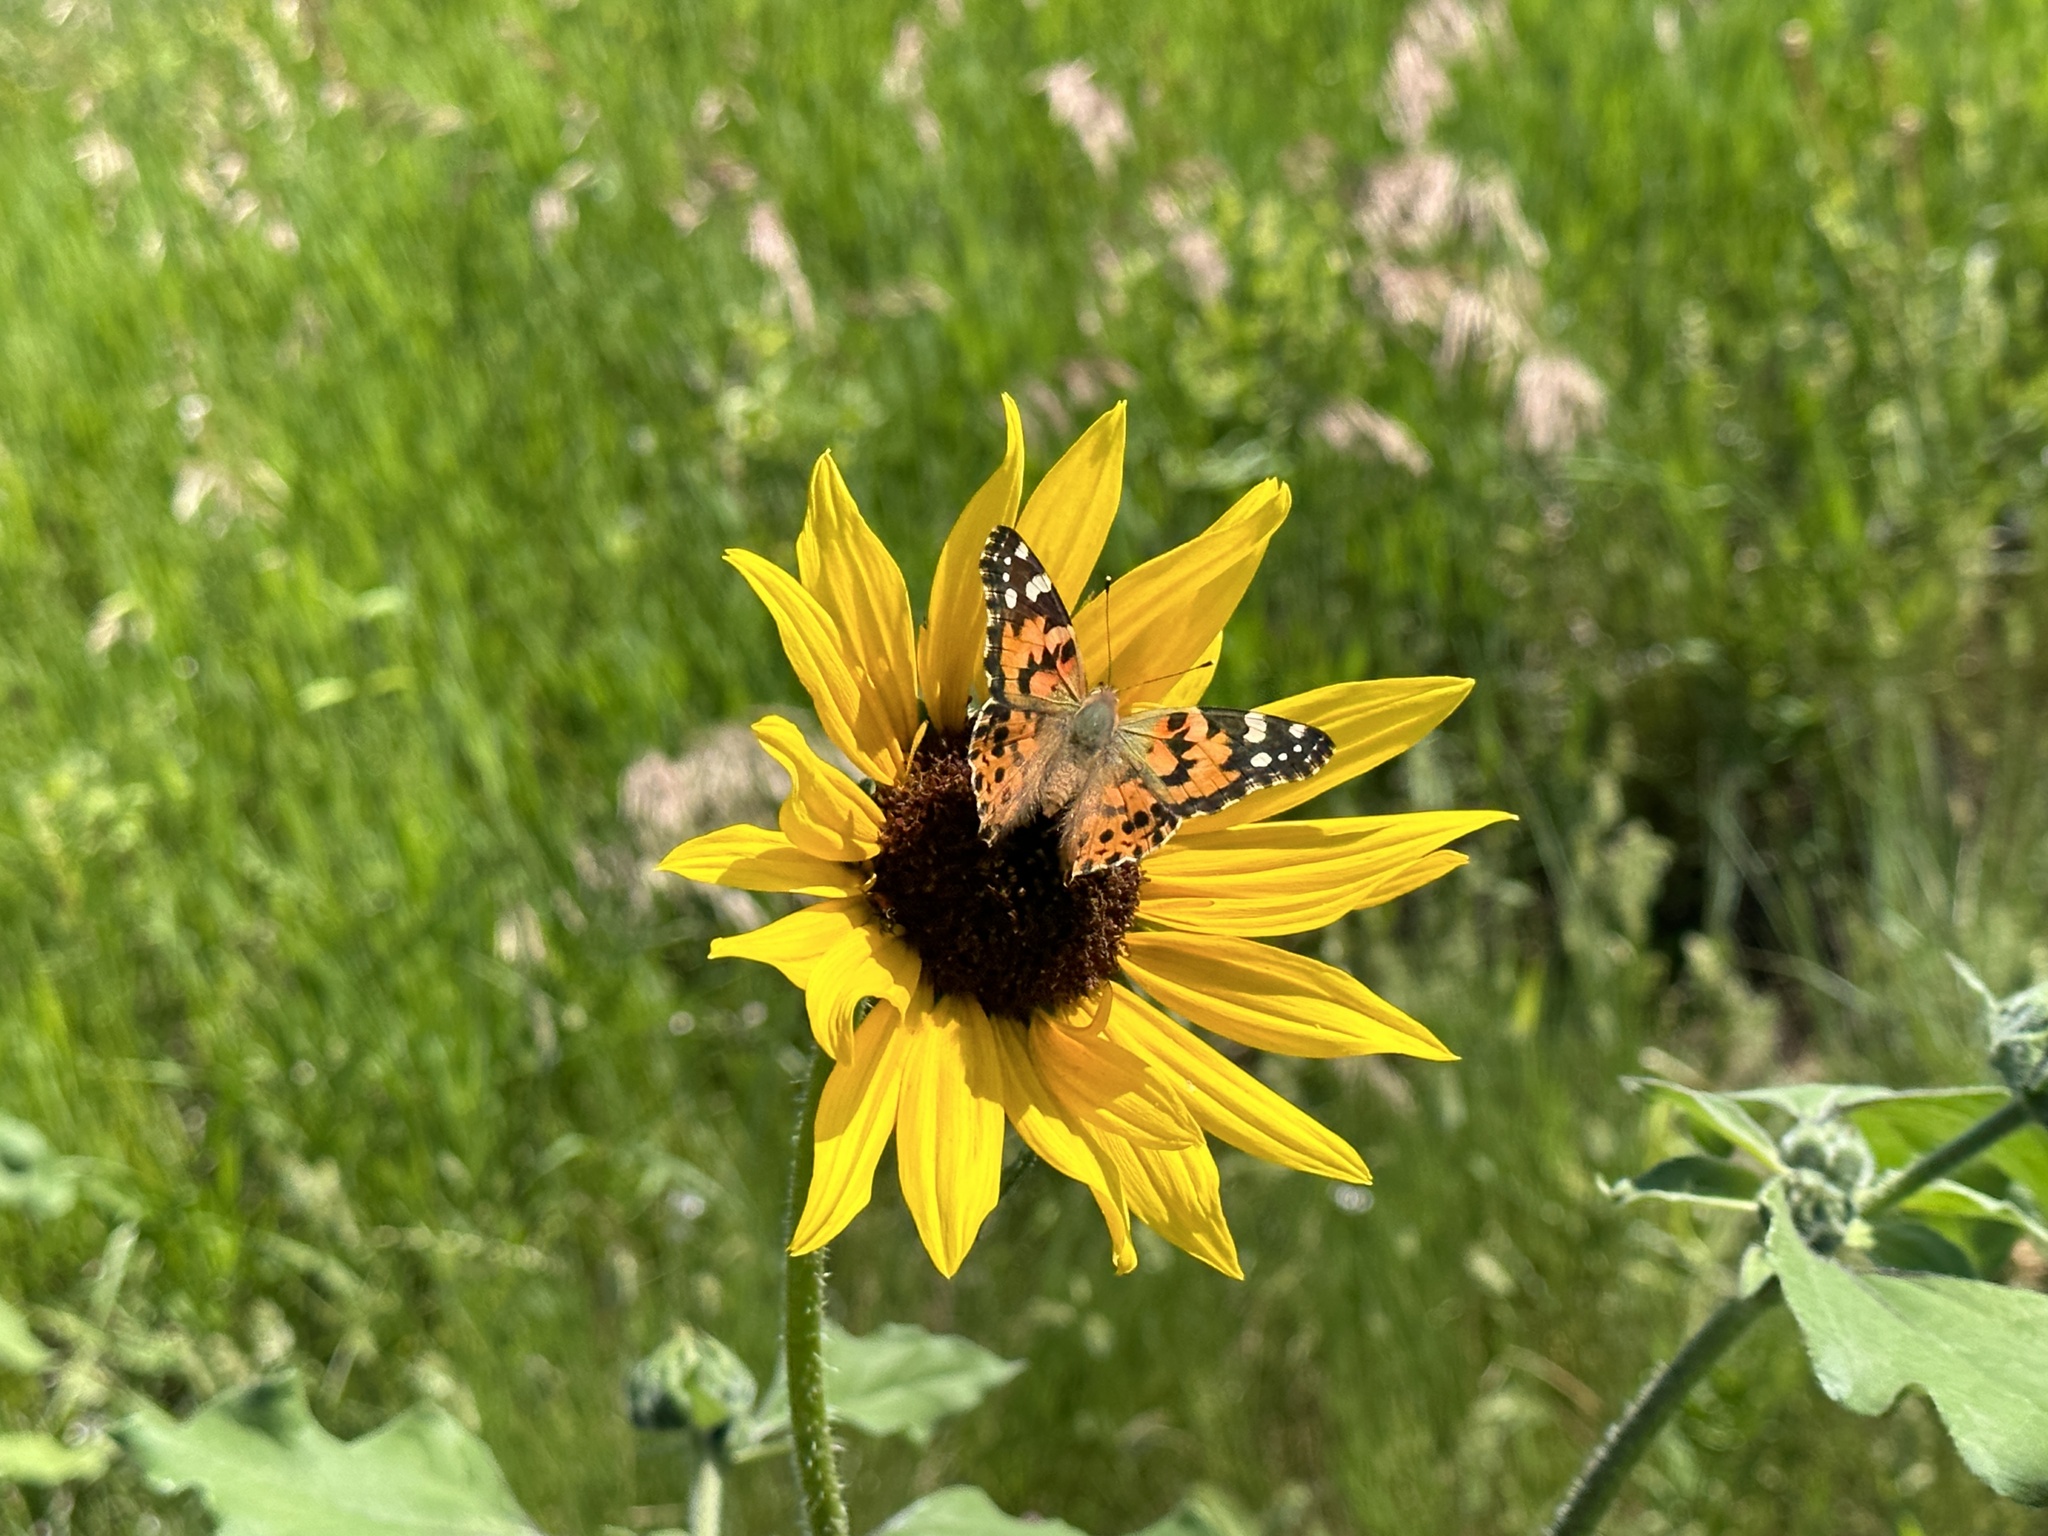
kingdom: Animalia
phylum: Arthropoda
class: Insecta
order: Lepidoptera
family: Nymphalidae
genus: Vanessa
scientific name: Vanessa cardui
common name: Painted lady
